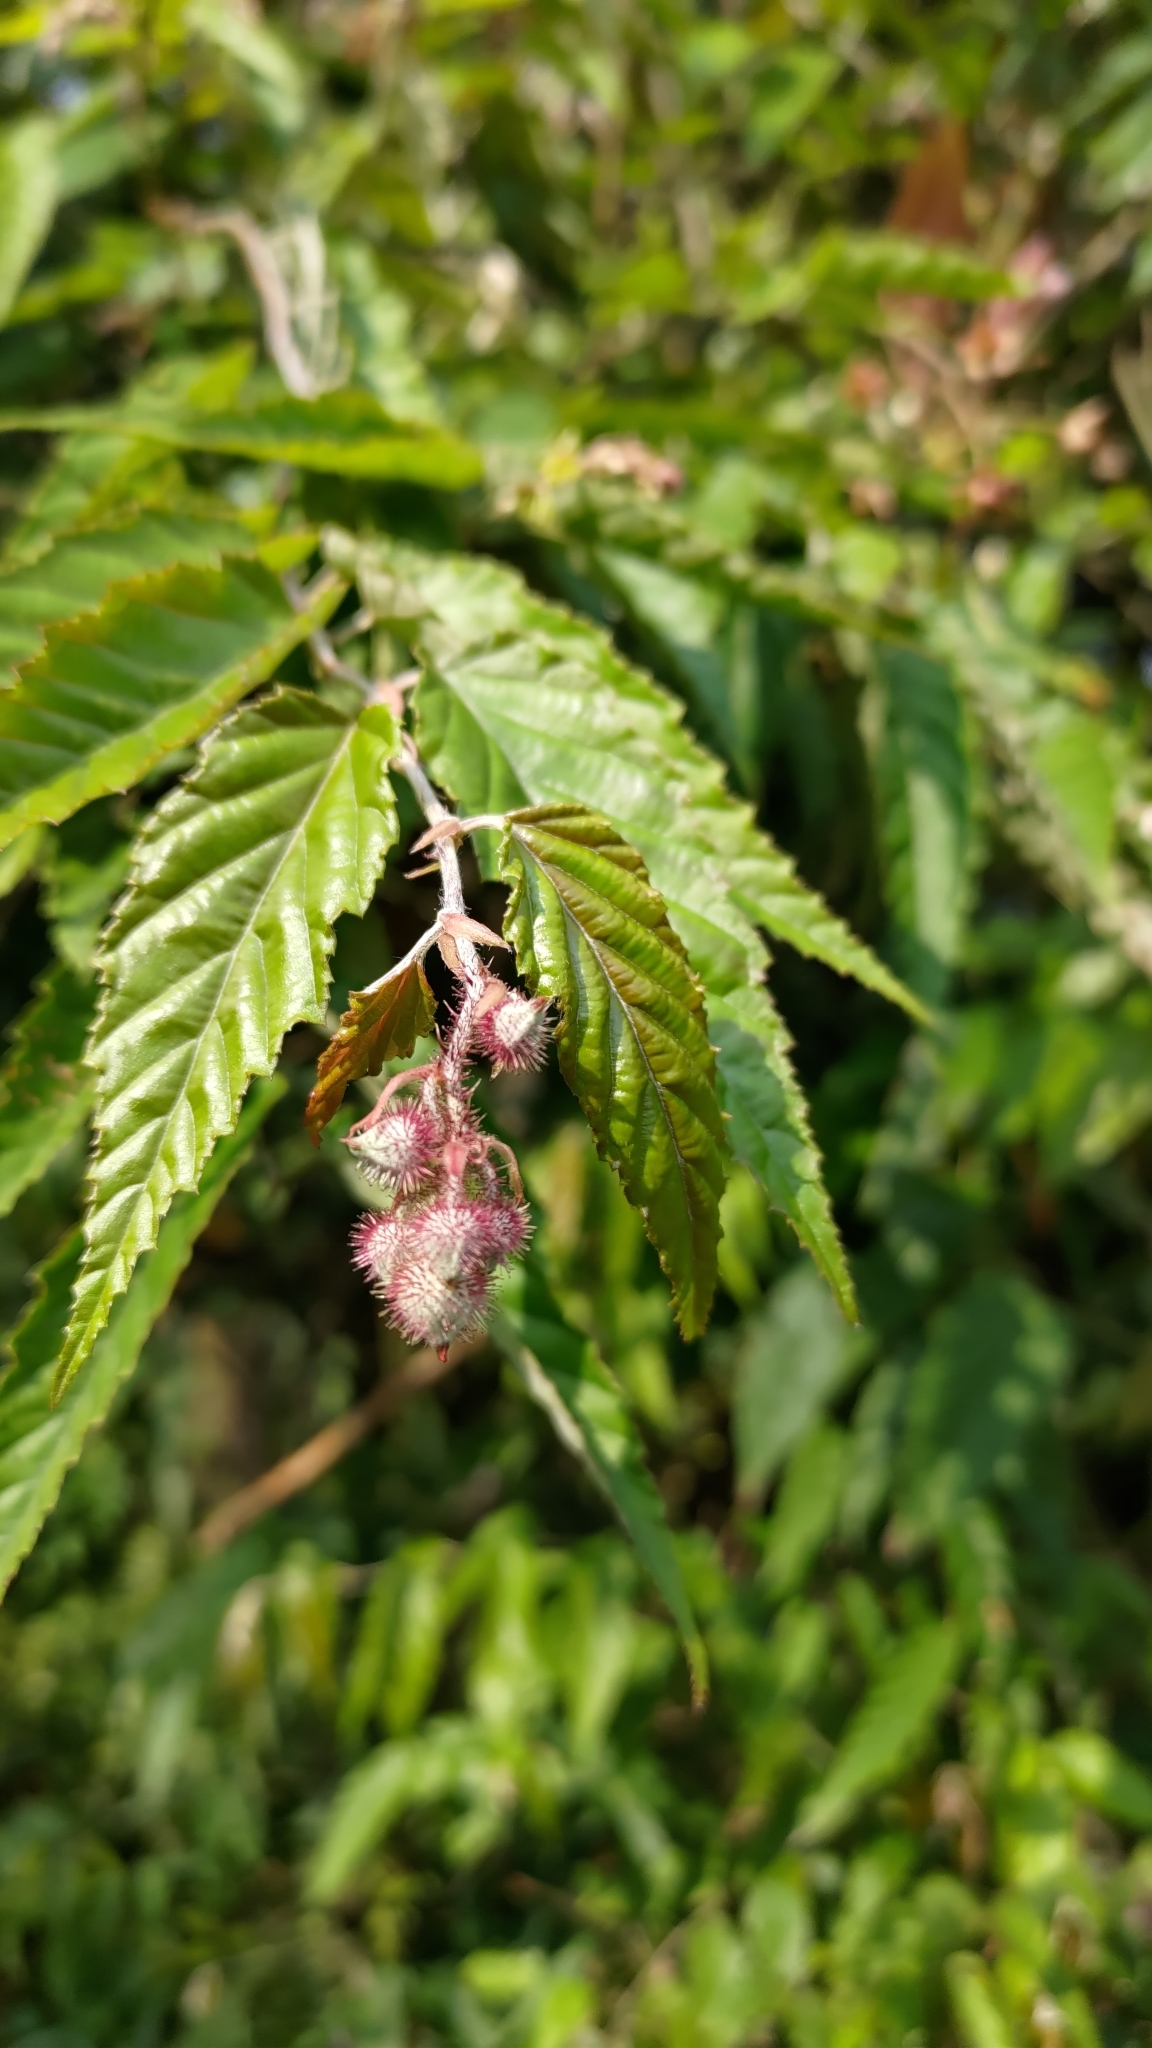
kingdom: Plantae
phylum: Tracheophyta
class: Magnoliopsida
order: Rosales
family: Rosaceae
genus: Rubus
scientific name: Rubus swinhoei
